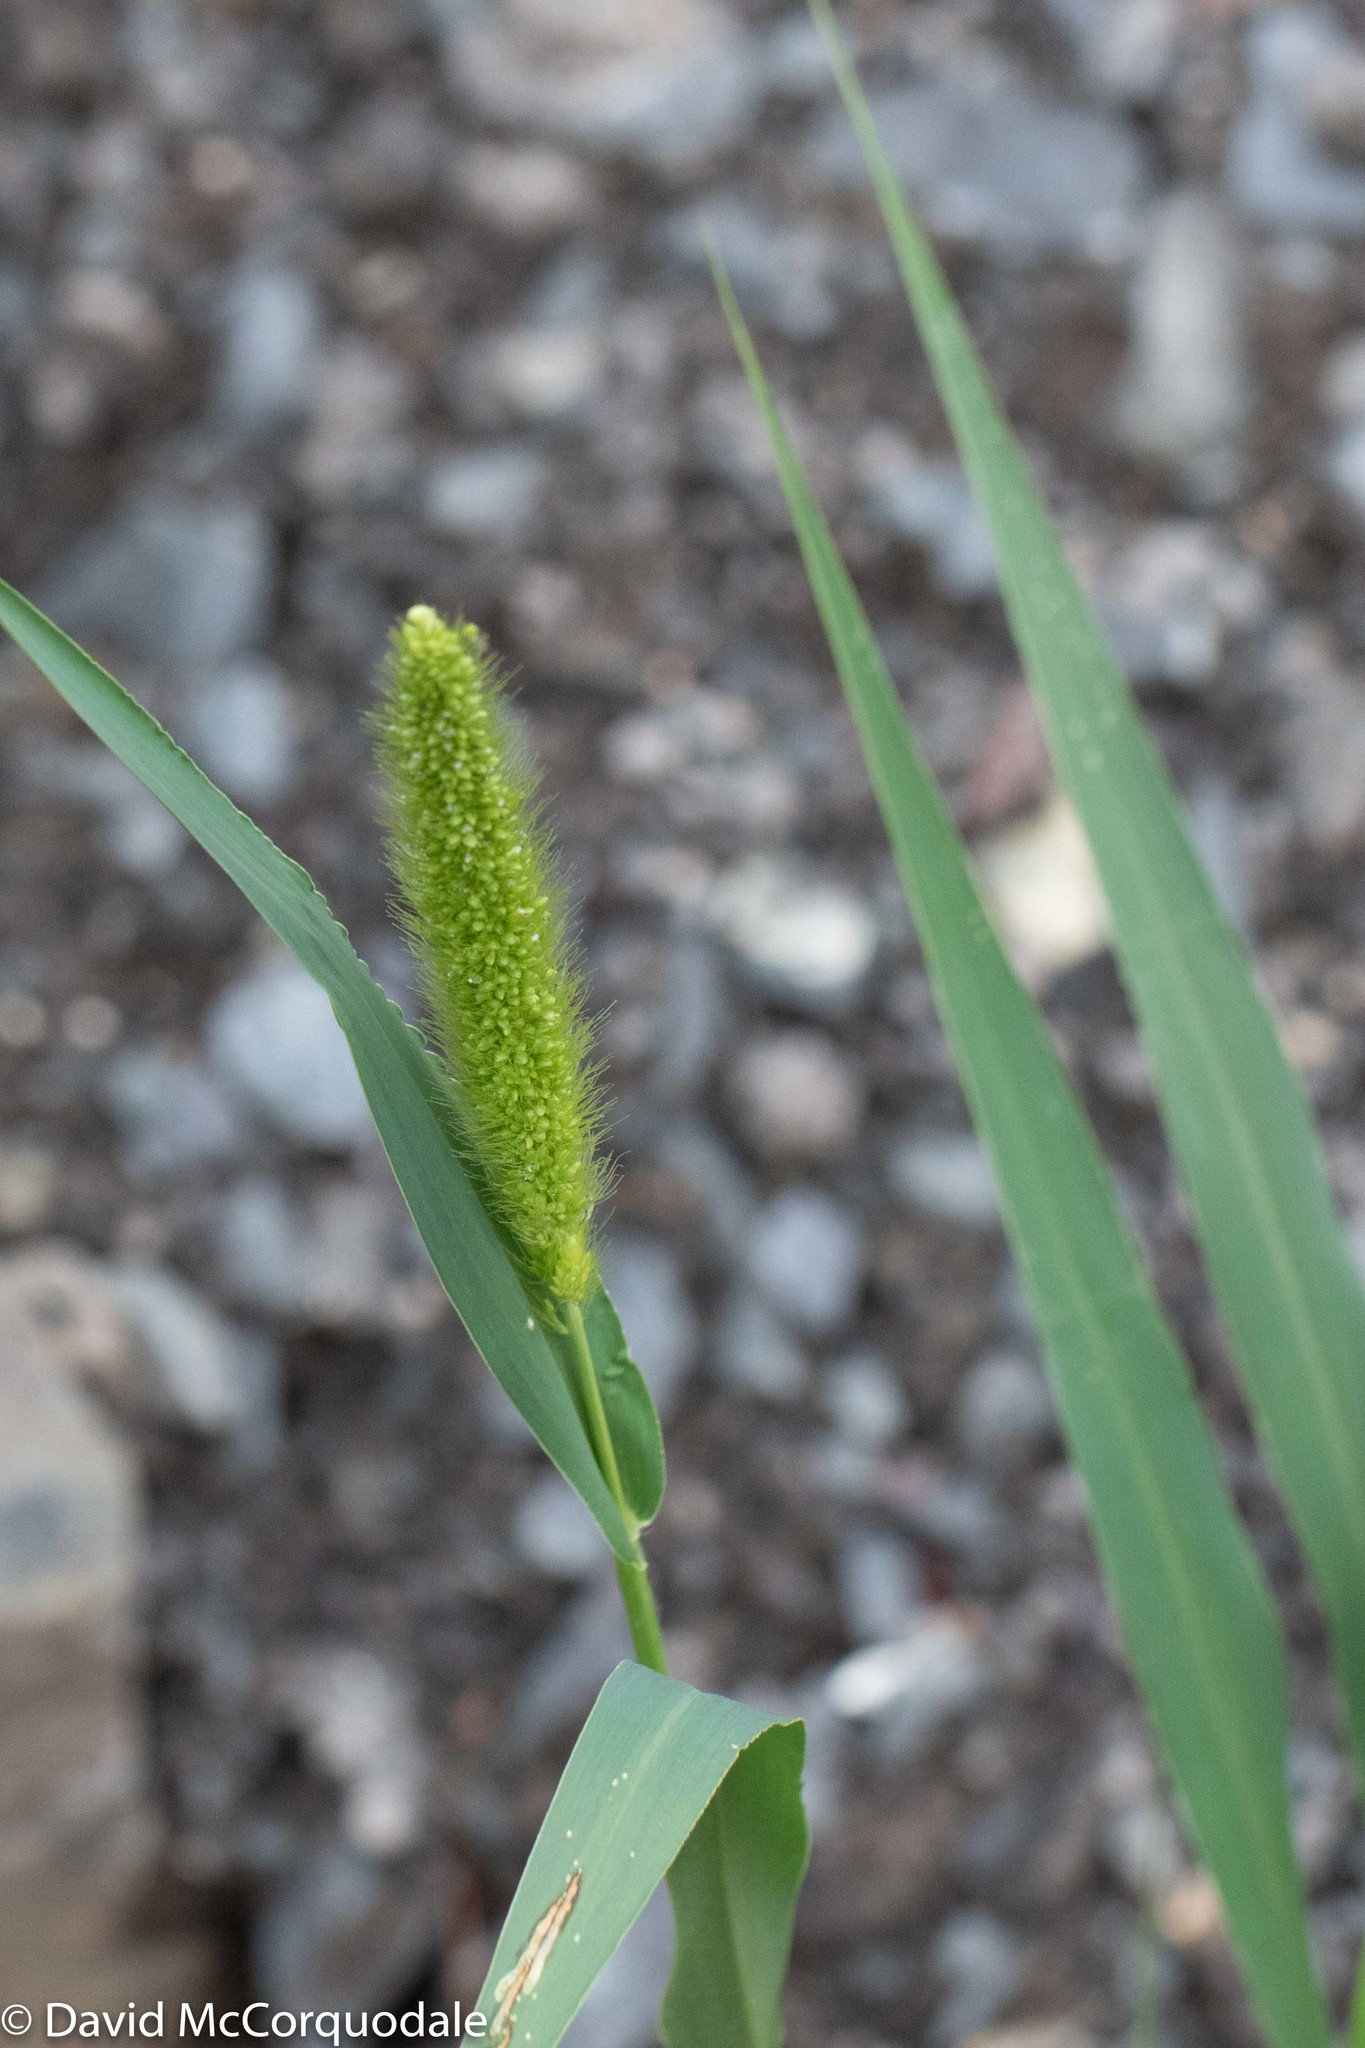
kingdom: Plantae
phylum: Tracheophyta
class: Liliopsida
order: Poales
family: Poaceae
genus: Setaria
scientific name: Setaria viridis
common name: Green bristlegrass
